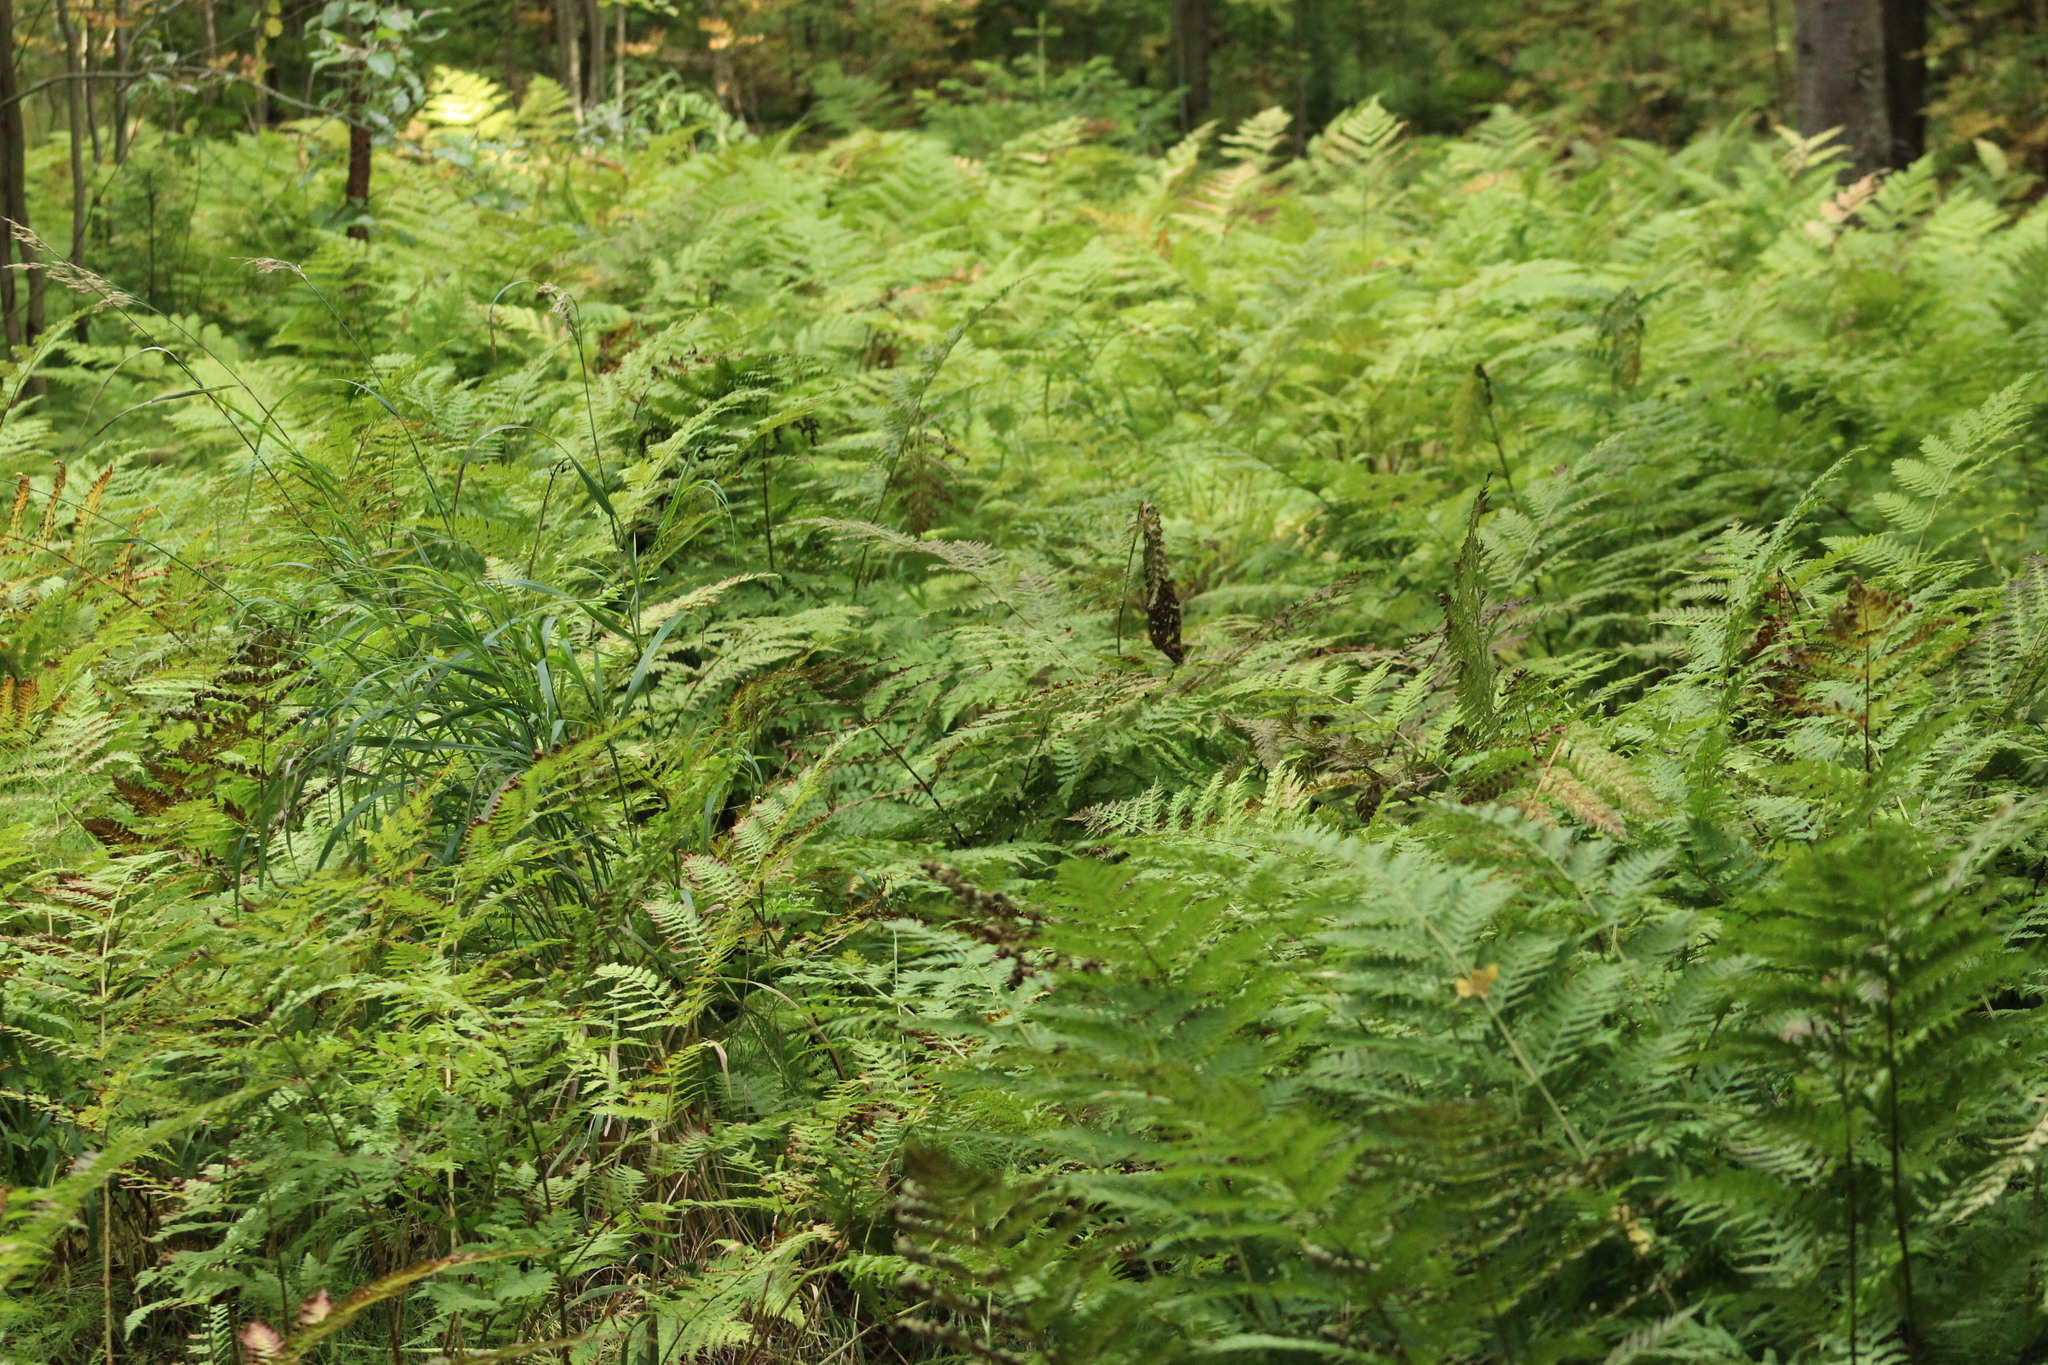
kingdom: Plantae
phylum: Tracheophyta
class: Polypodiopsida
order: Polypodiales
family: Dryopteridaceae
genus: Dryopteris
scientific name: Dryopteris expansa
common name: Northern buckler fern
